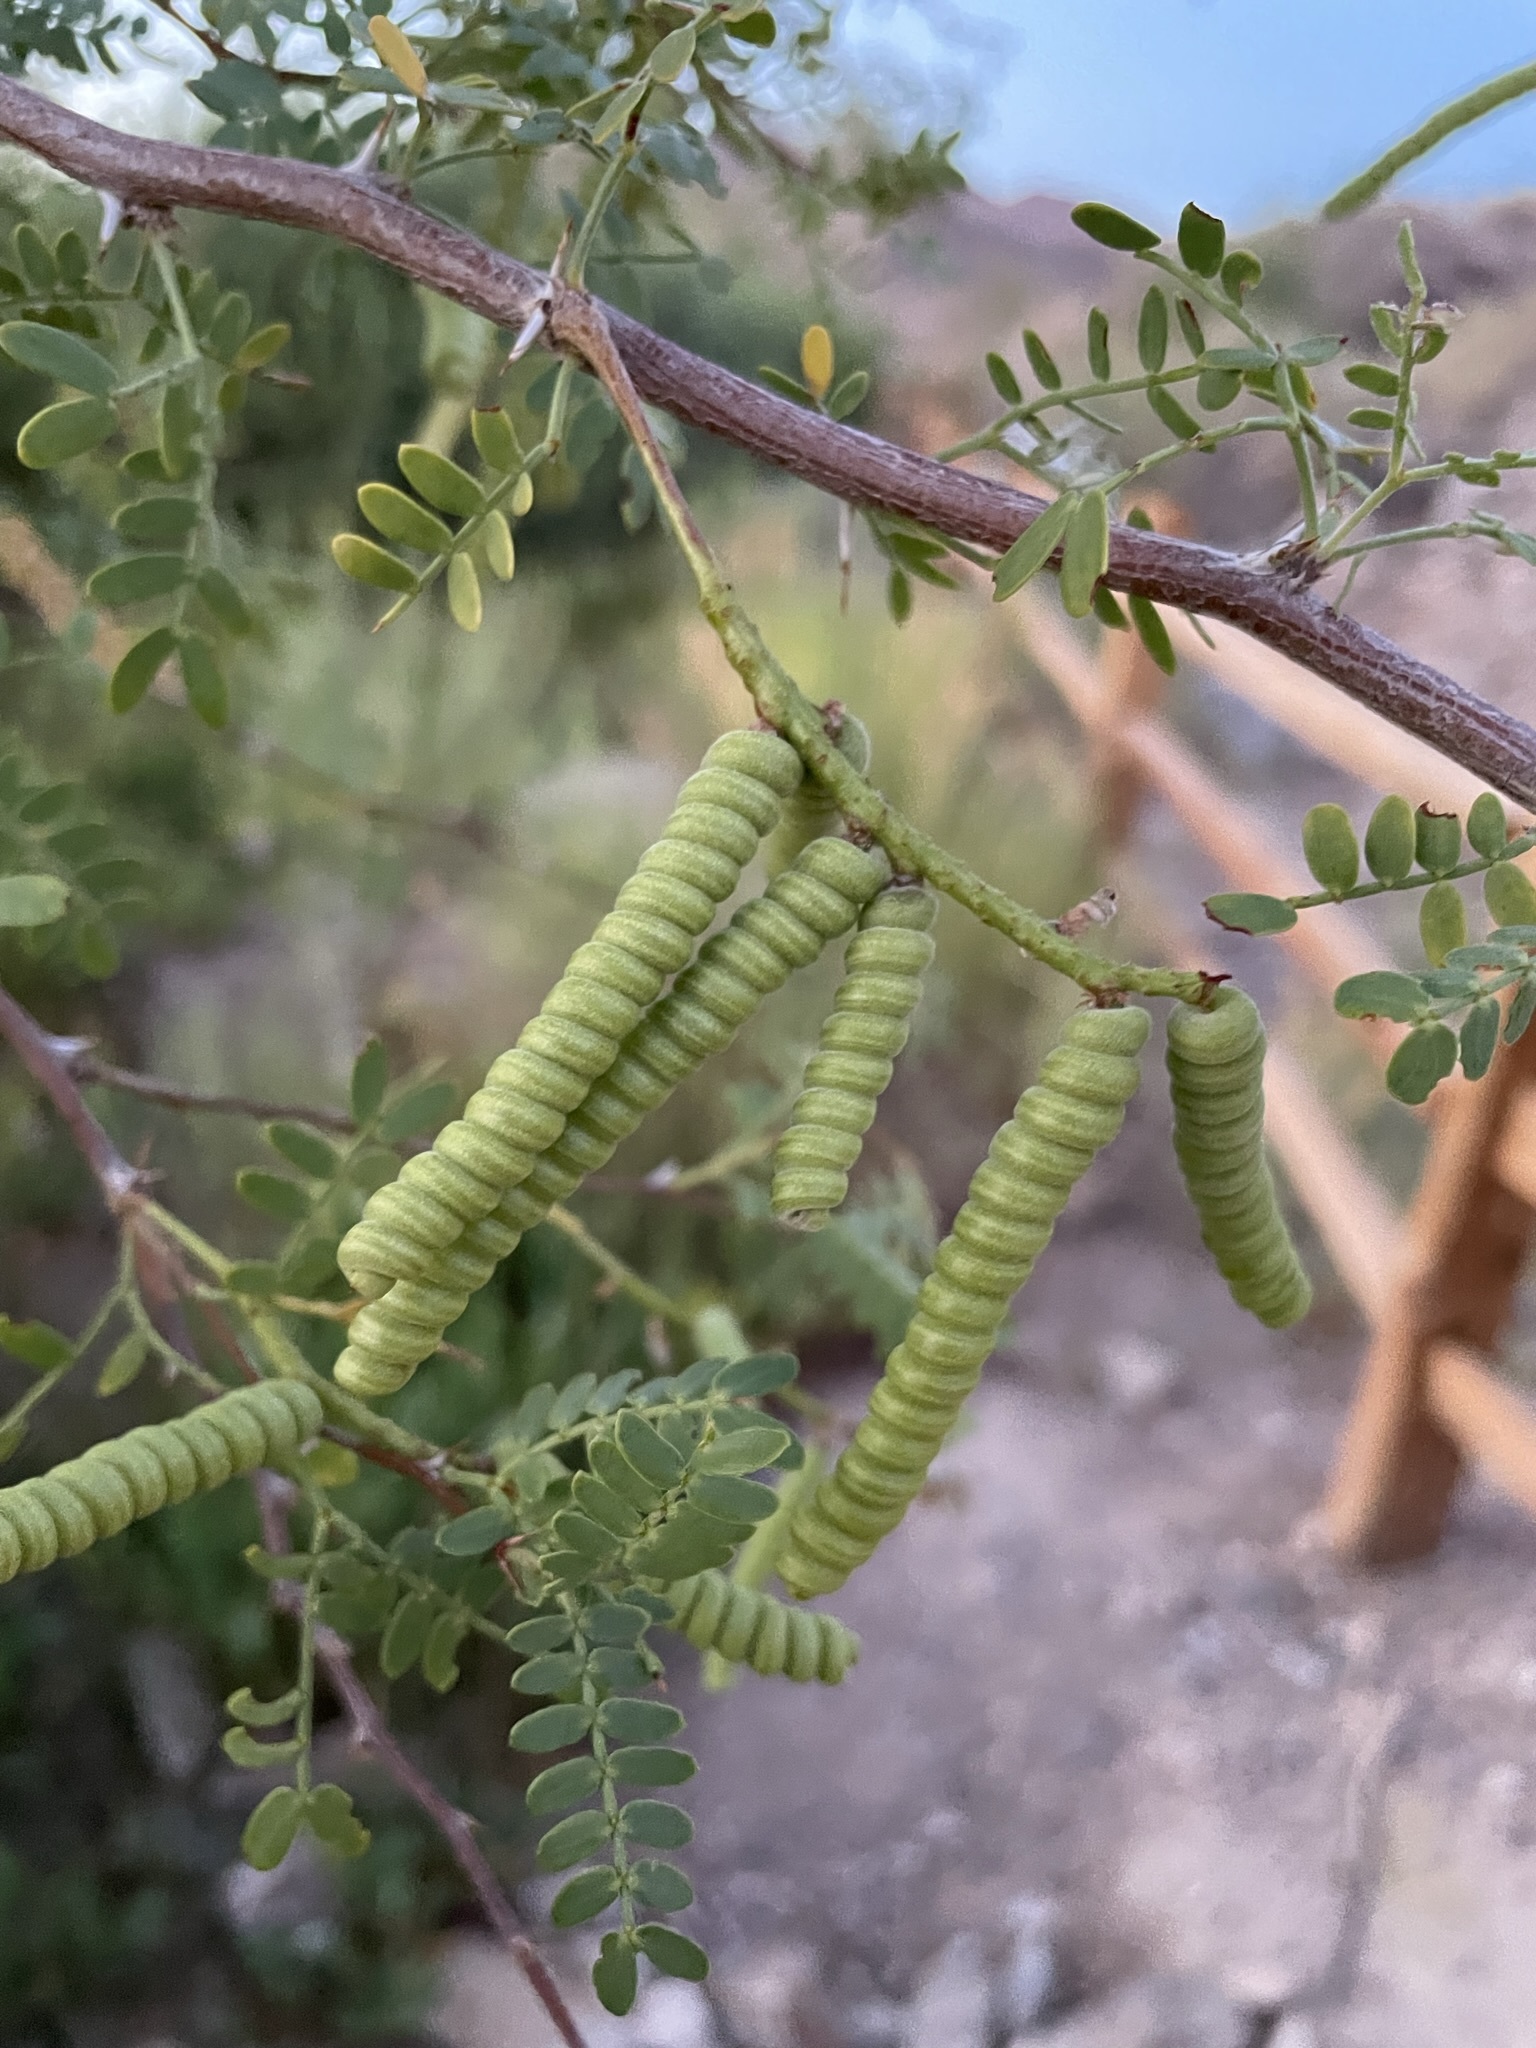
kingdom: Plantae
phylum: Tracheophyta
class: Magnoliopsida
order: Fabales
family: Fabaceae
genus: Prosopis
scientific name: Prosopis pubescens
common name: Screw-bean
